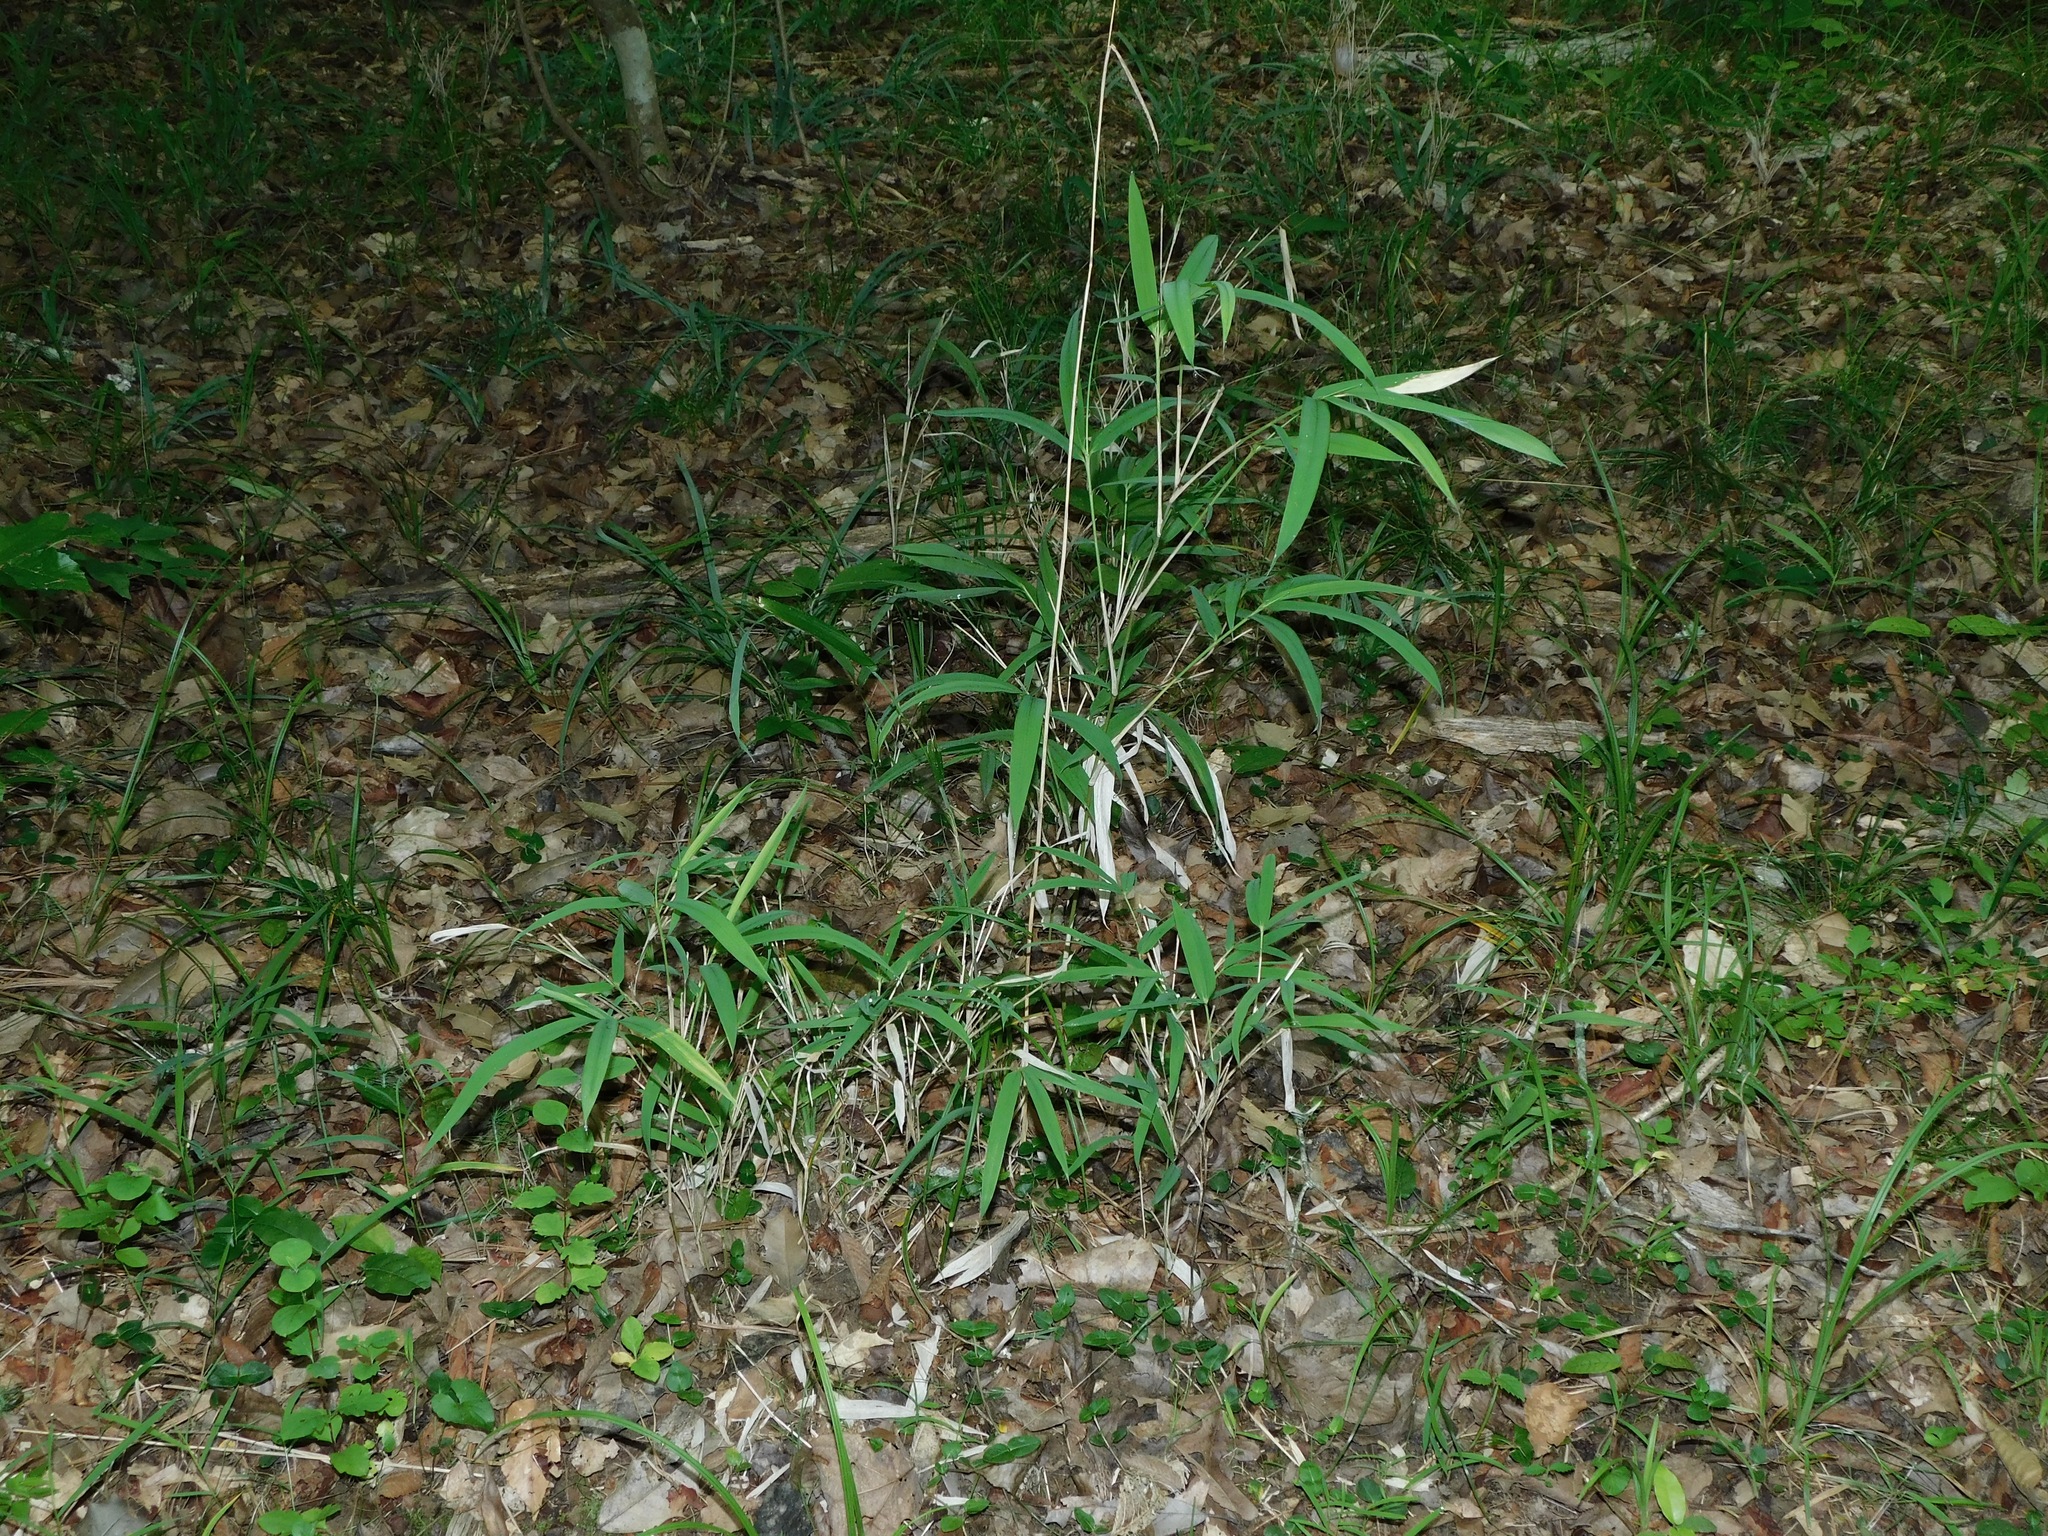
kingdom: Plantae
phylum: Tracheophyta
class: Liliopsida
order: Poales
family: Poaceae
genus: Arundinaria
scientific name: Arundinaria appalachiana
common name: Hill cane
